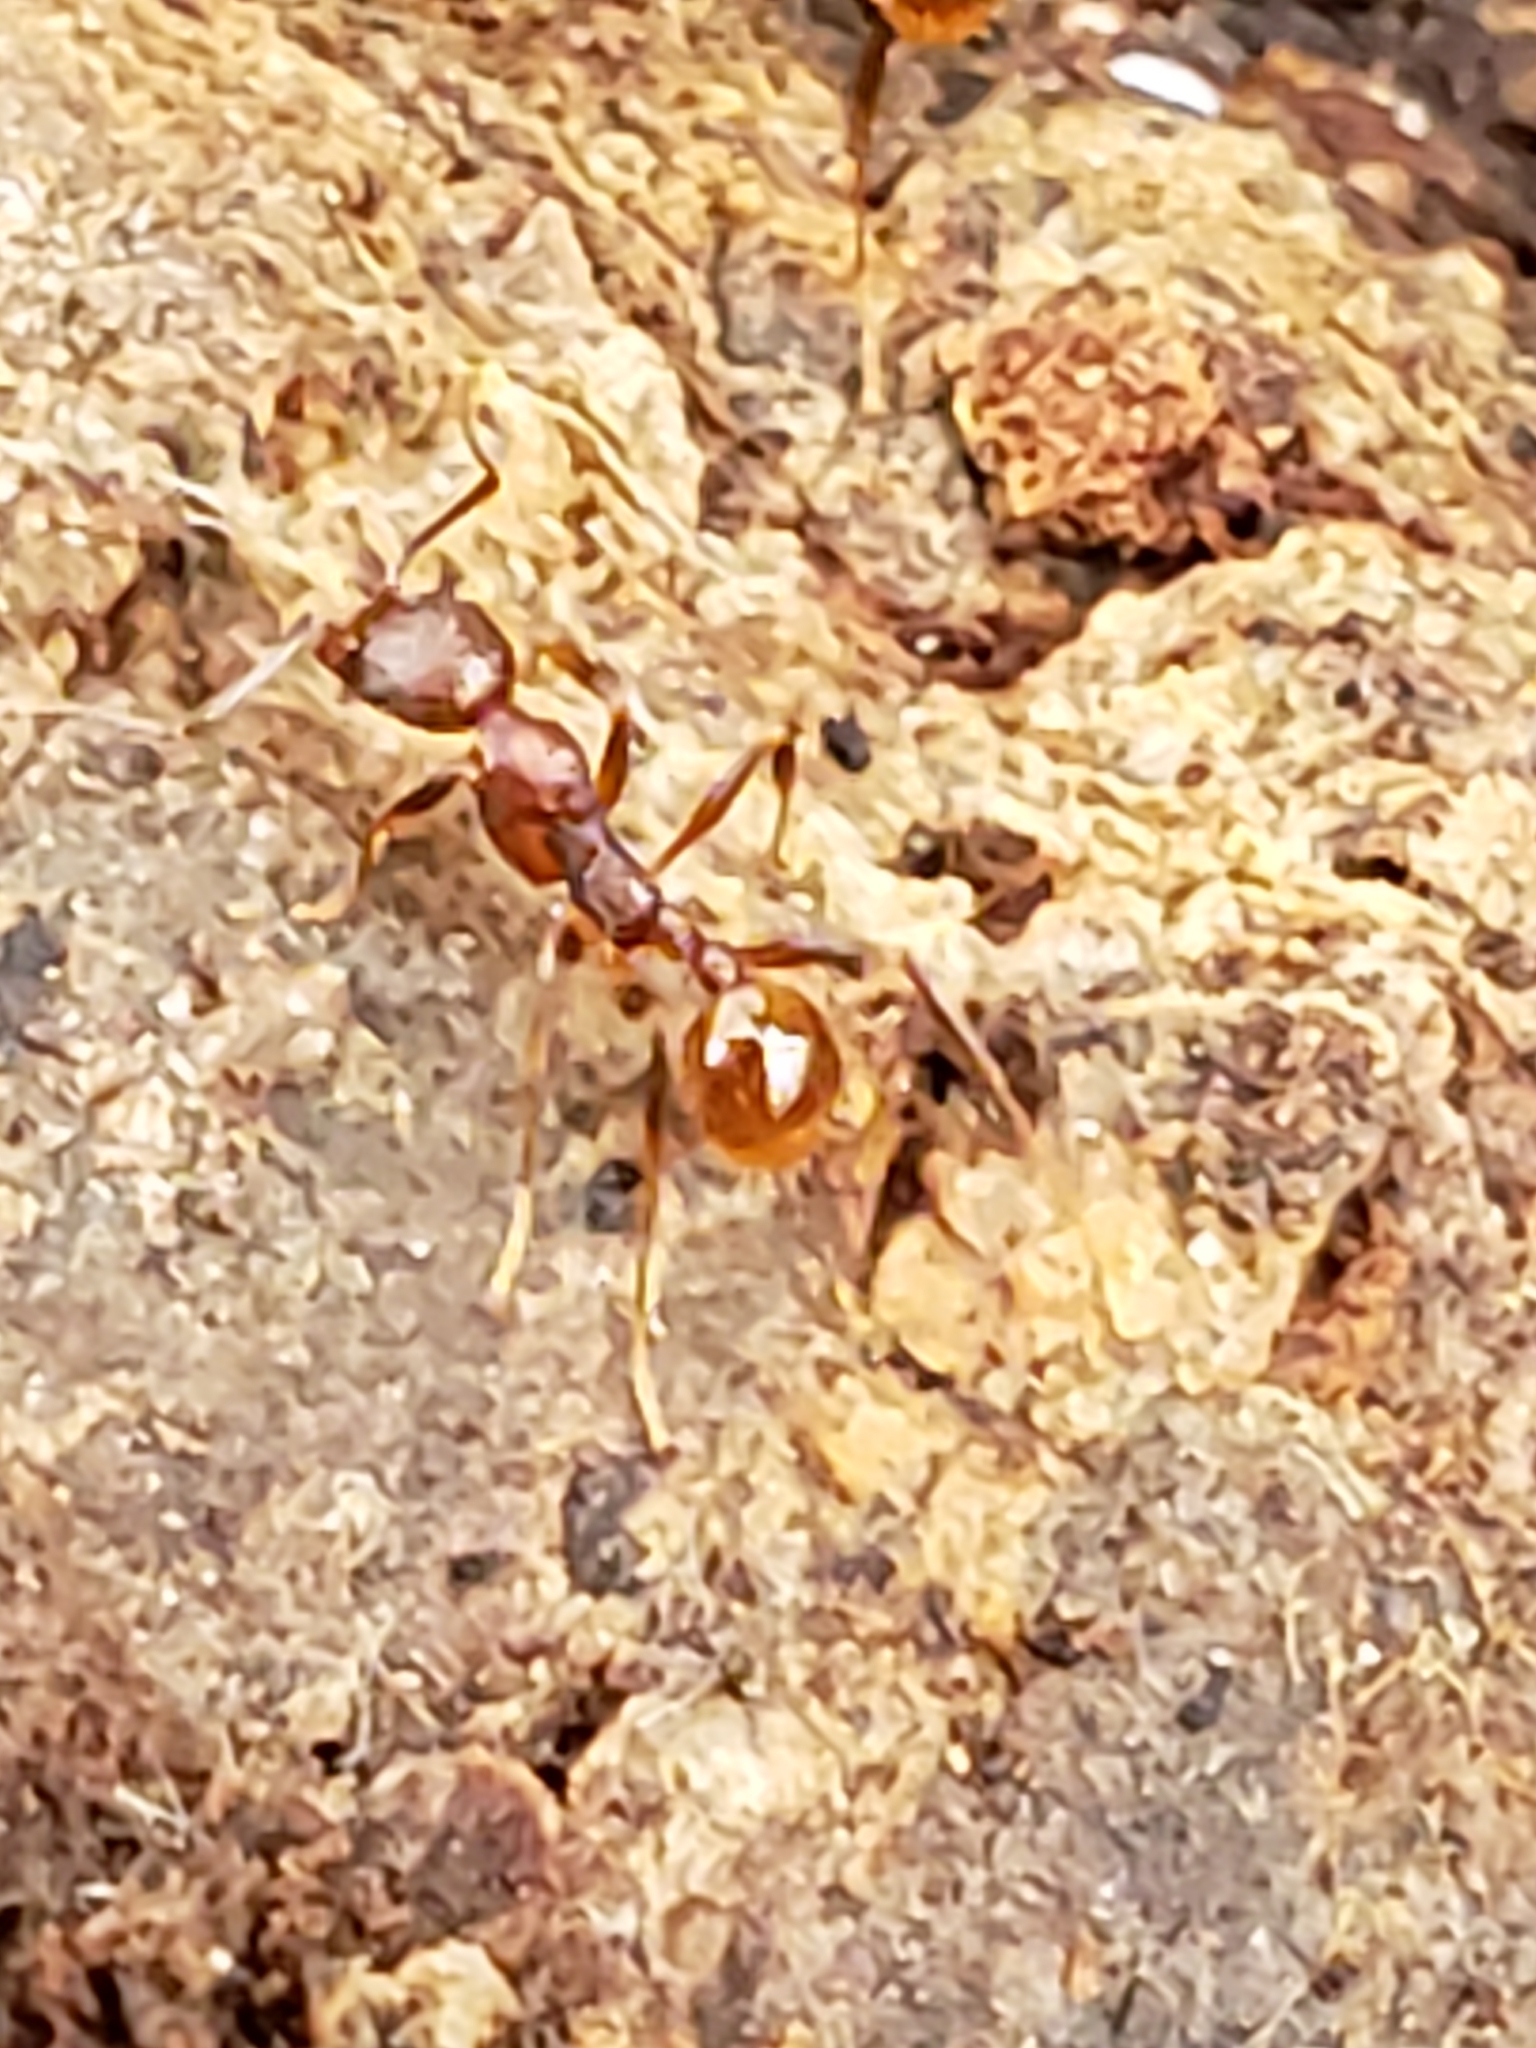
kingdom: Animalia
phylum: Arthropoda
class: Insecta
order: Hymenoptera
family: Formicidae
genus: Aphaenogaster
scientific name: Aphaenogaster fulva
